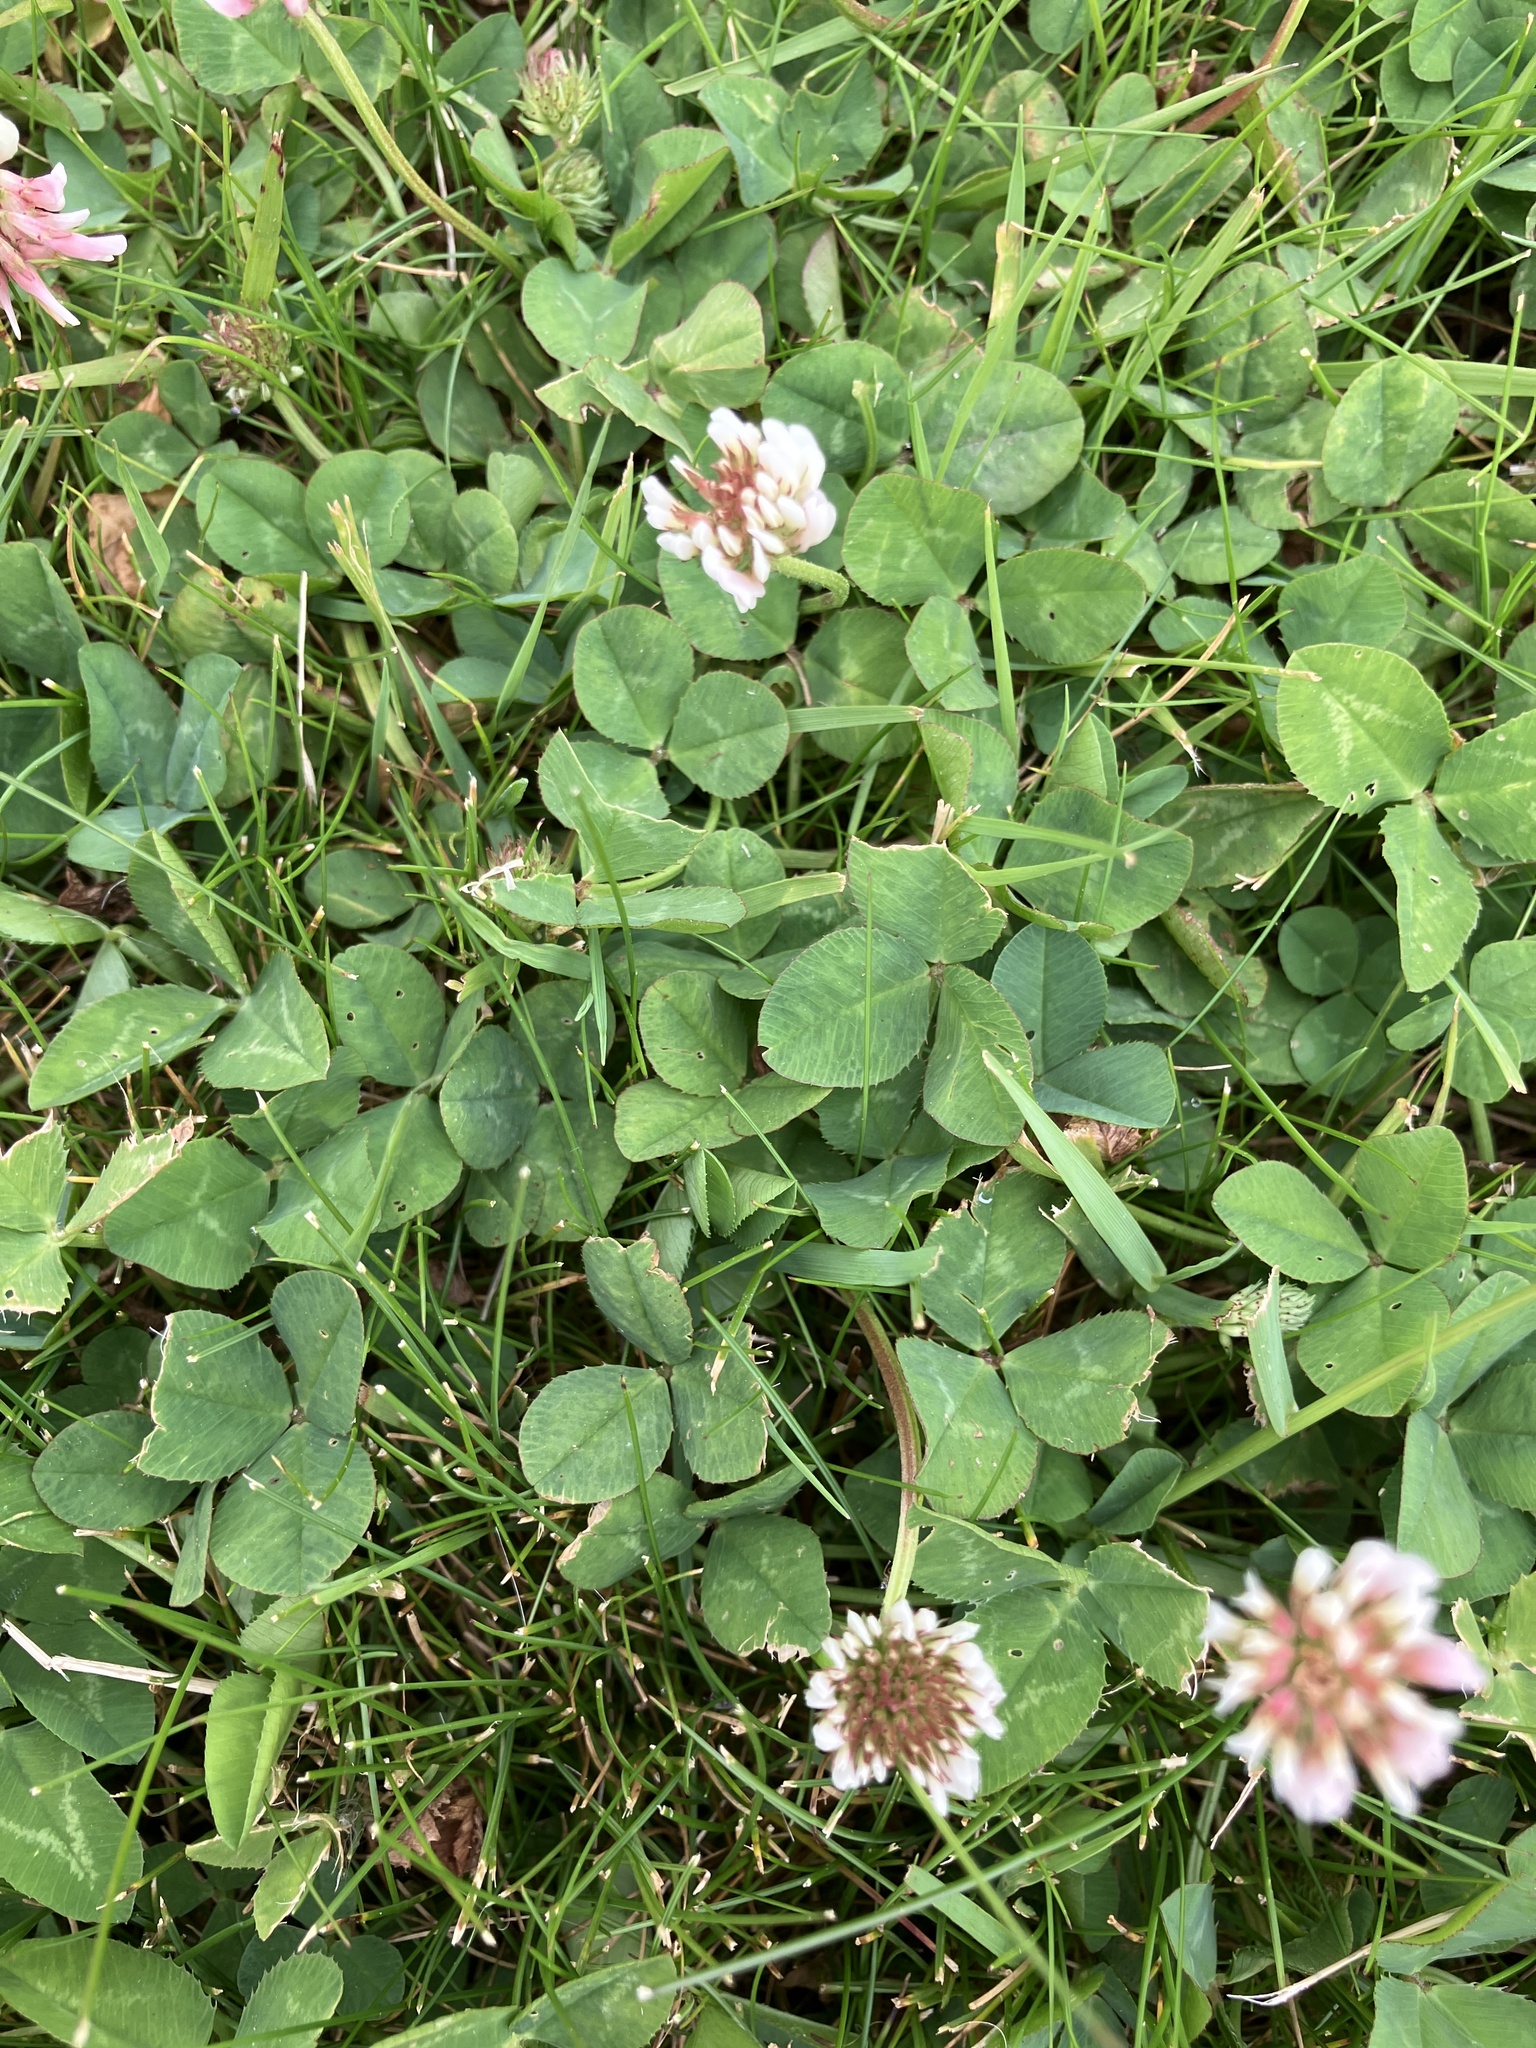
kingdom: Plantae
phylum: Tracheophyta
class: Magnoliopsida
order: Fabales
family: Fabaceae
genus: Trifolium
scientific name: Trifolium repens
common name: White clover
